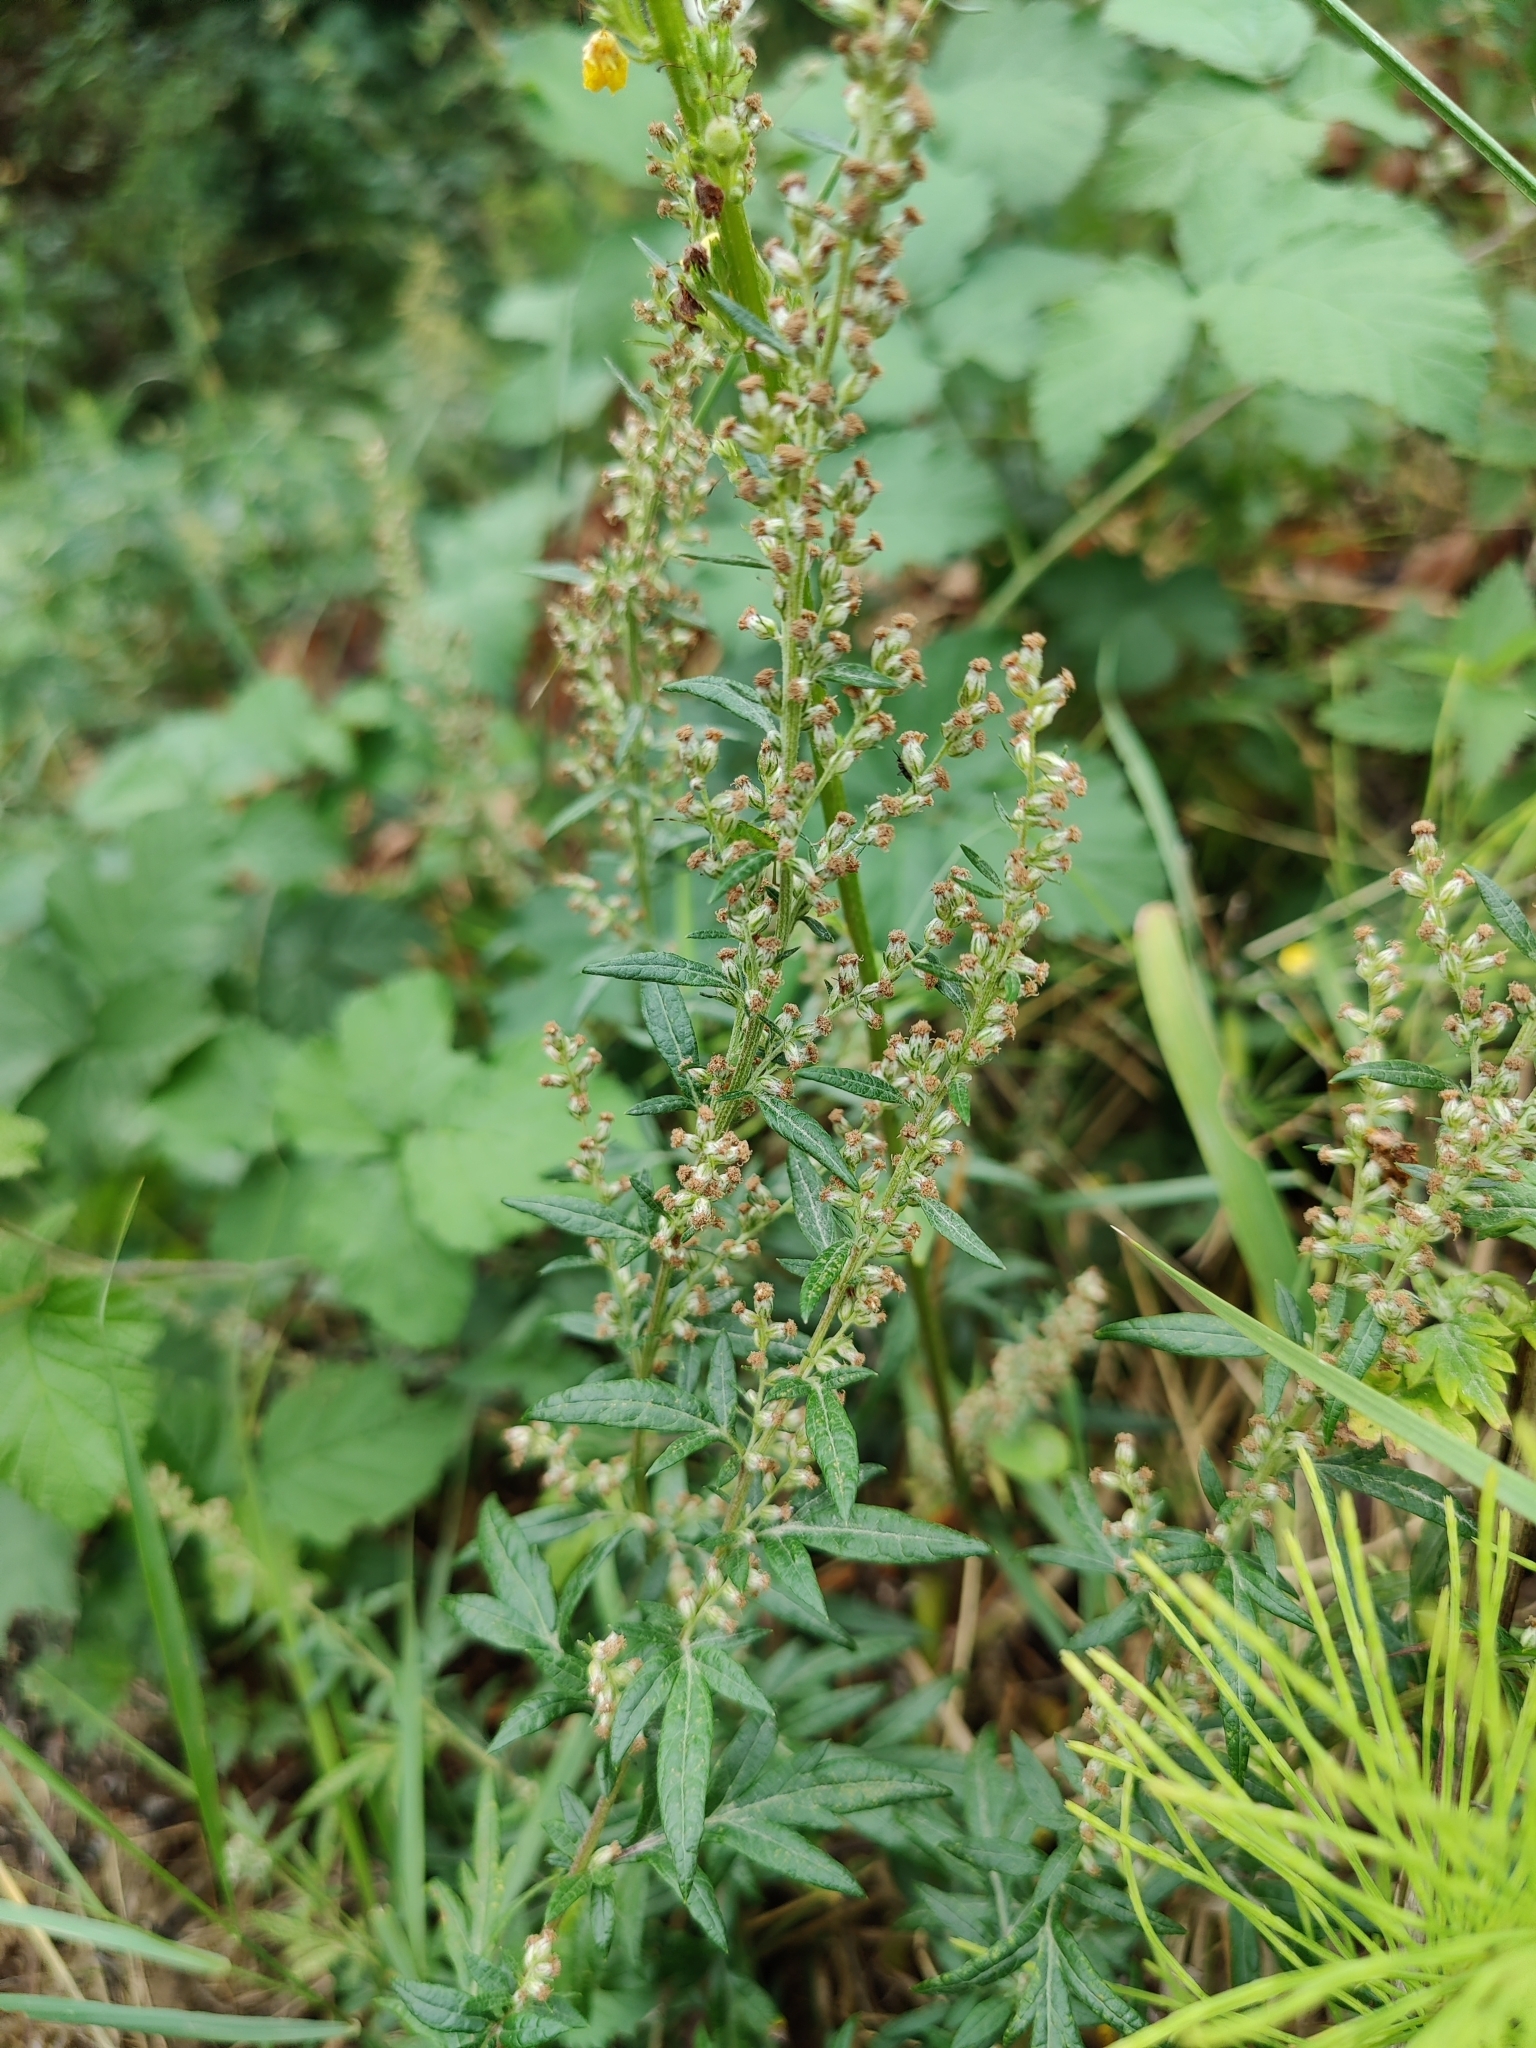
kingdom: Plantae
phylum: Tracheophyta
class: Magnoliopsida
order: Asterales
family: Asteraceae
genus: Artemisia
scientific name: Artemisia vulgaris
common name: Mugwort
